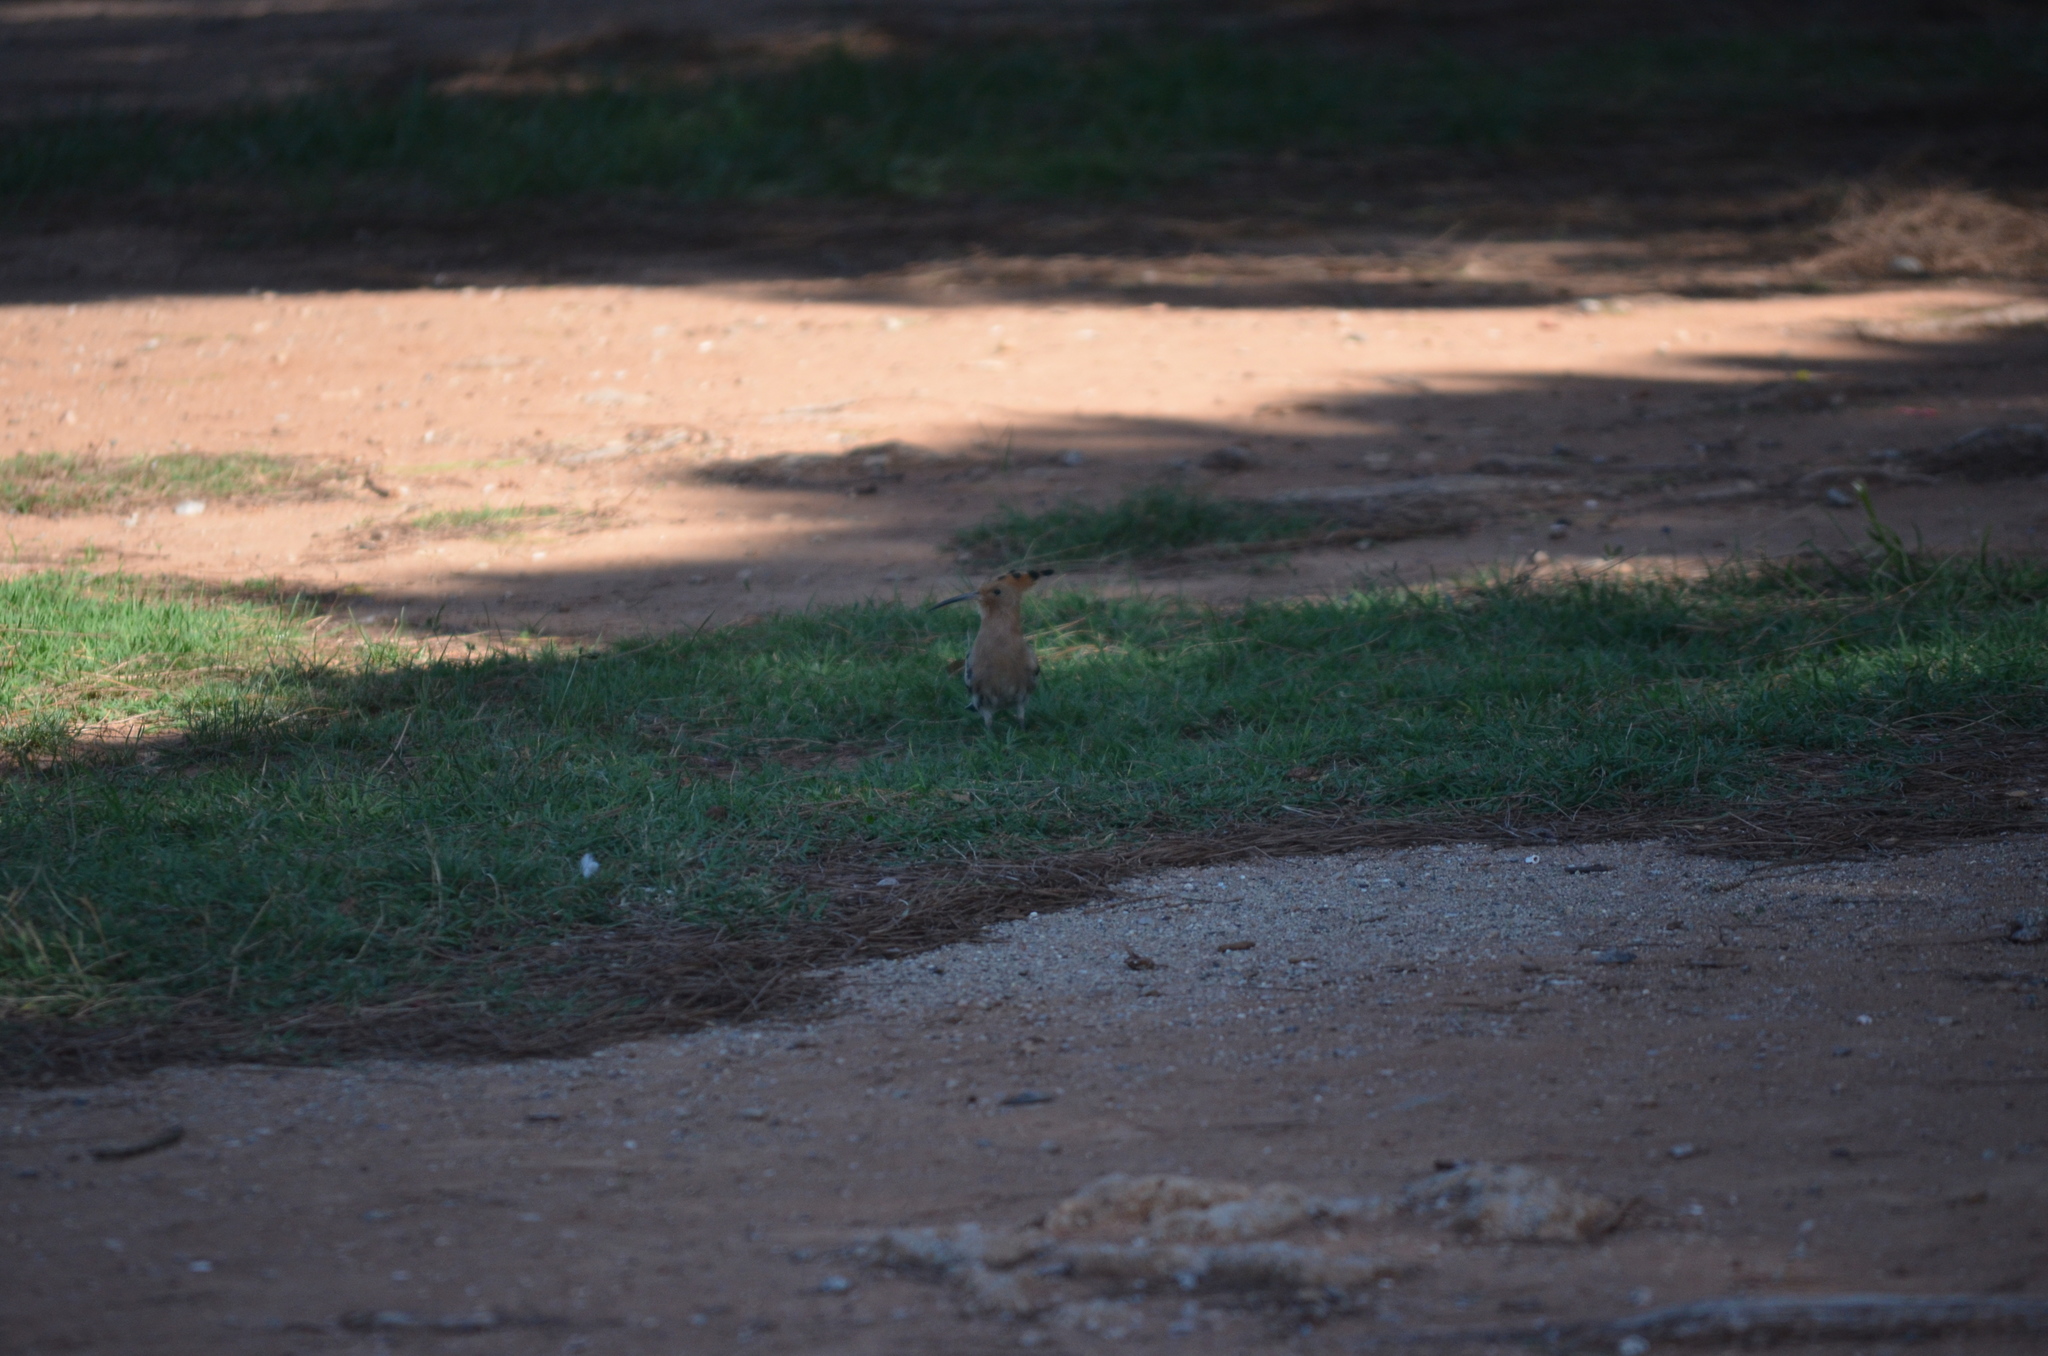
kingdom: Animalia
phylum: Chordata
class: Aves
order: Bucerotiformes
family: Upupidae
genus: Upupa
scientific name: Upupa epops
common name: Eurasian hoopoe
